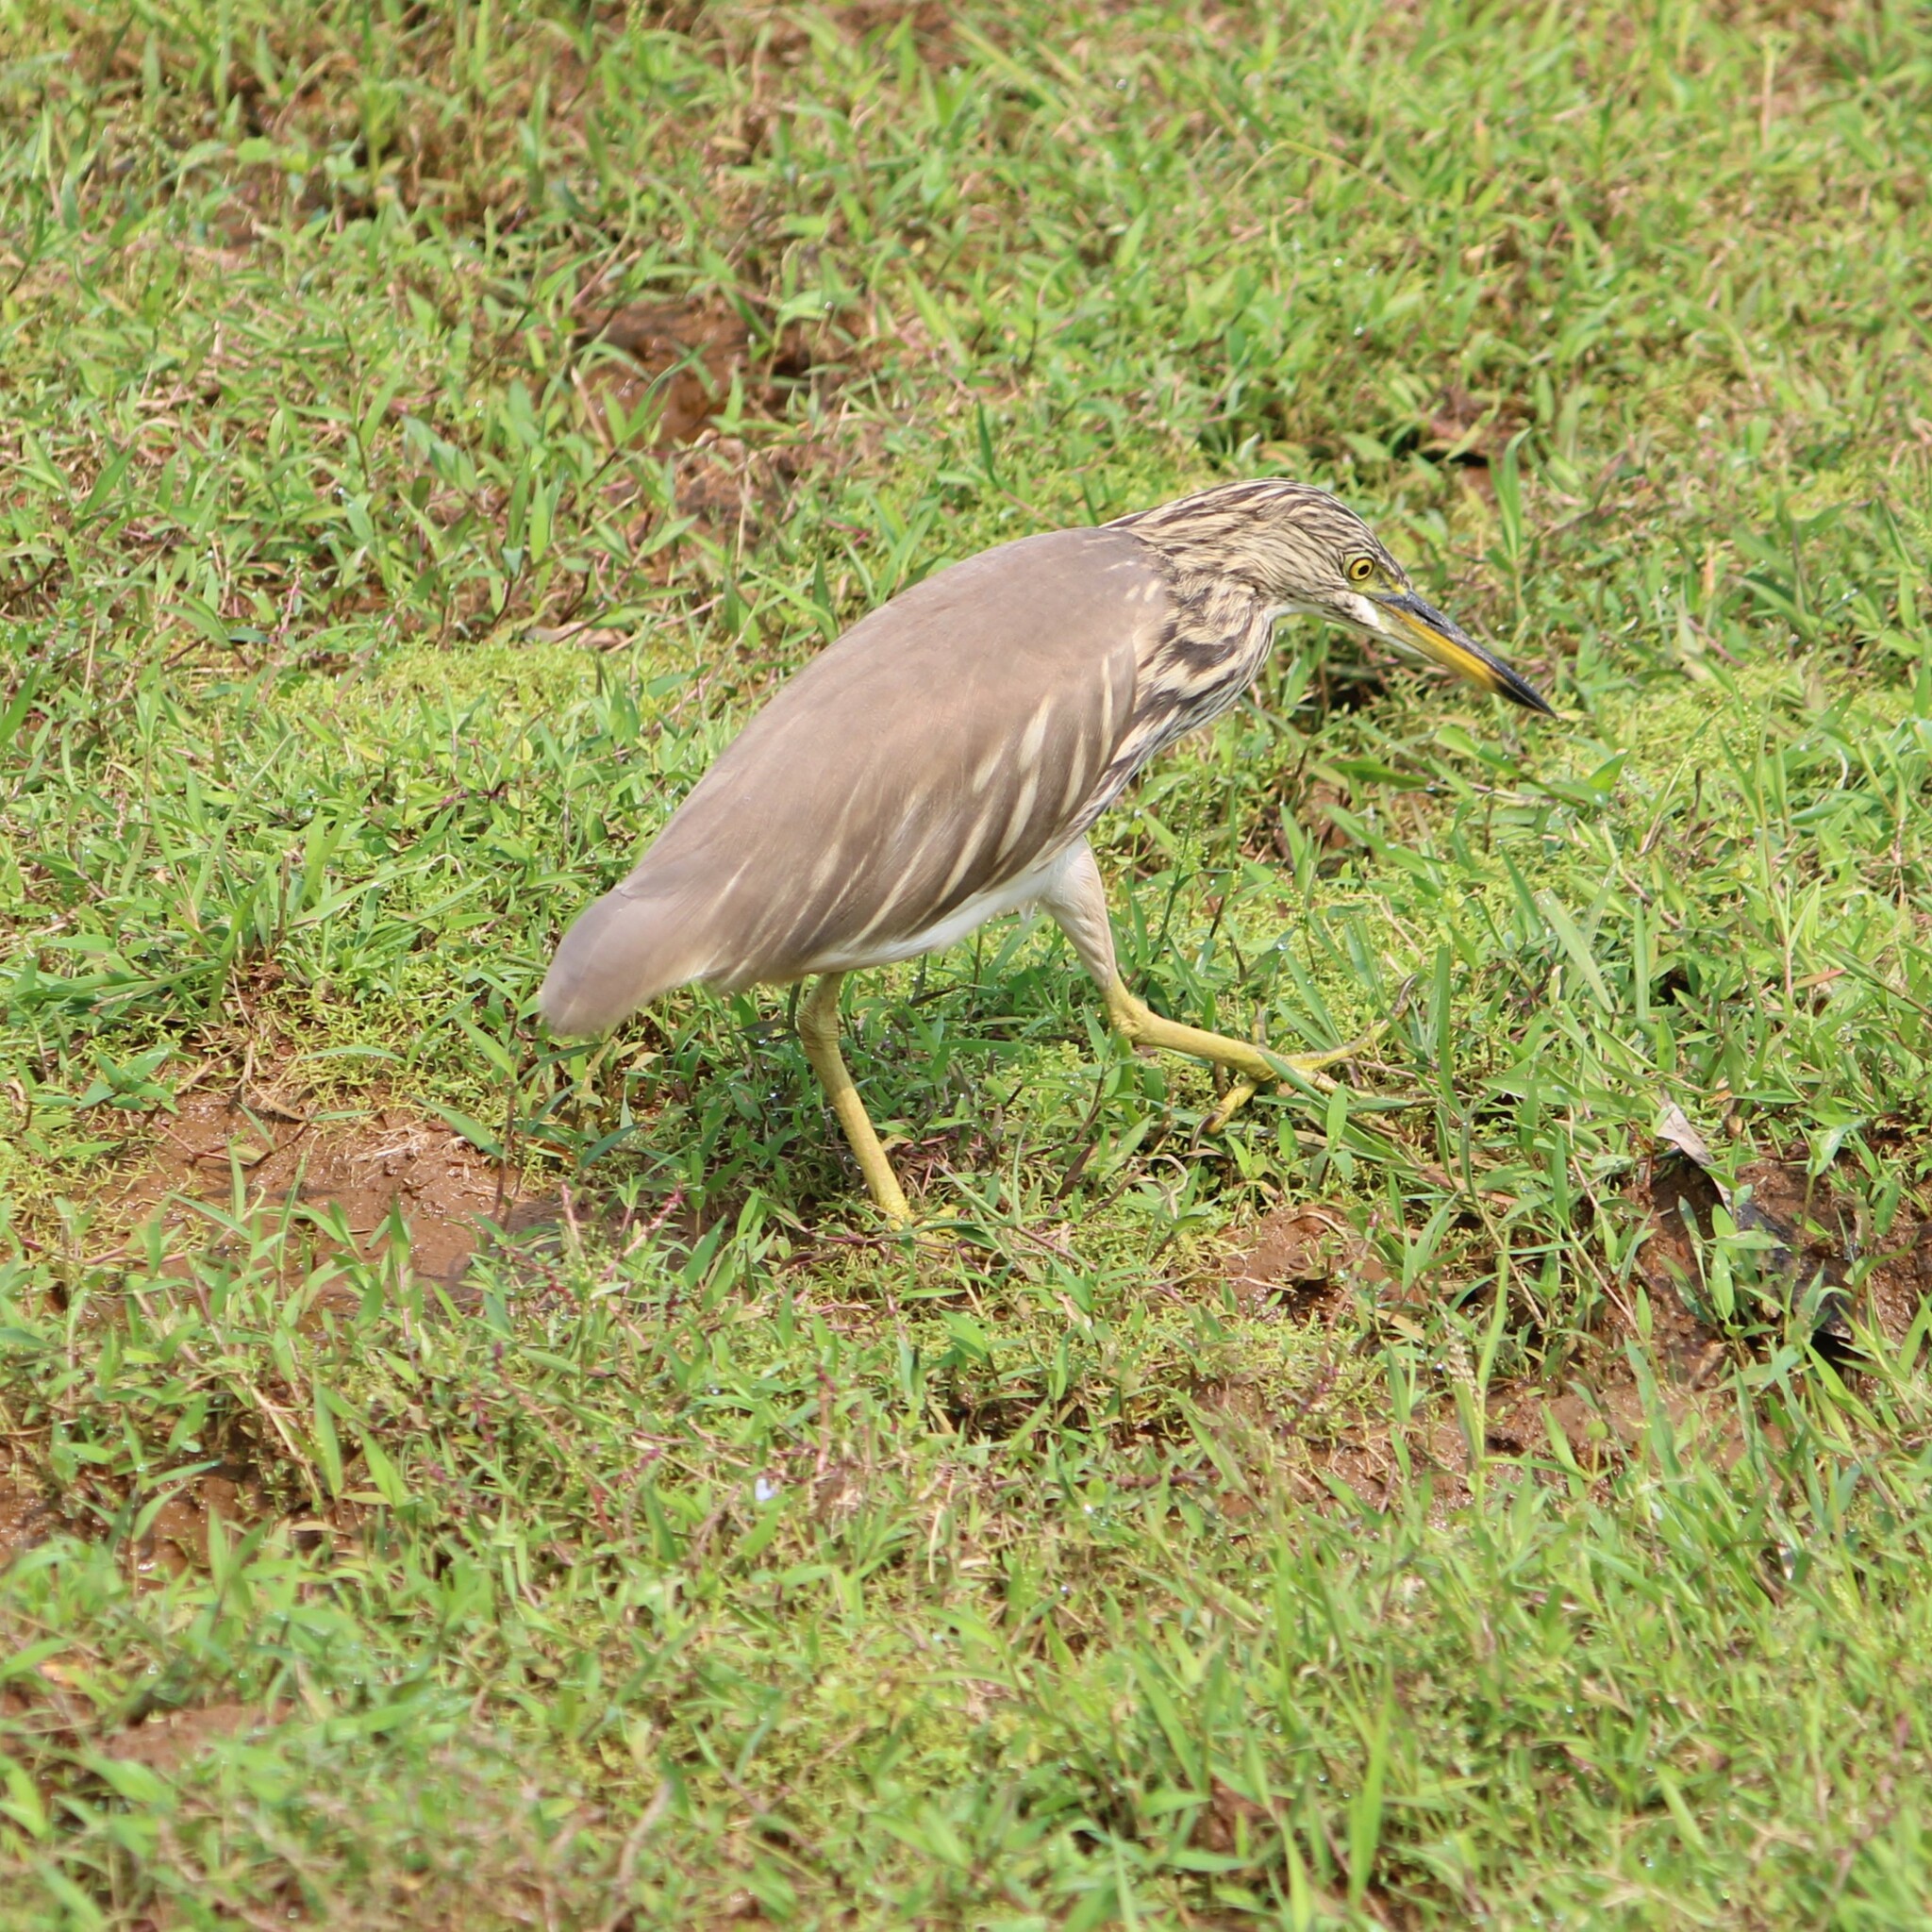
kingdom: Animalia
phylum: Chordata
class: Aves
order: Pelecaniformes
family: Ardeidae
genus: Ardeola
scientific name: Ardeola grayii
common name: Indian pond heron
